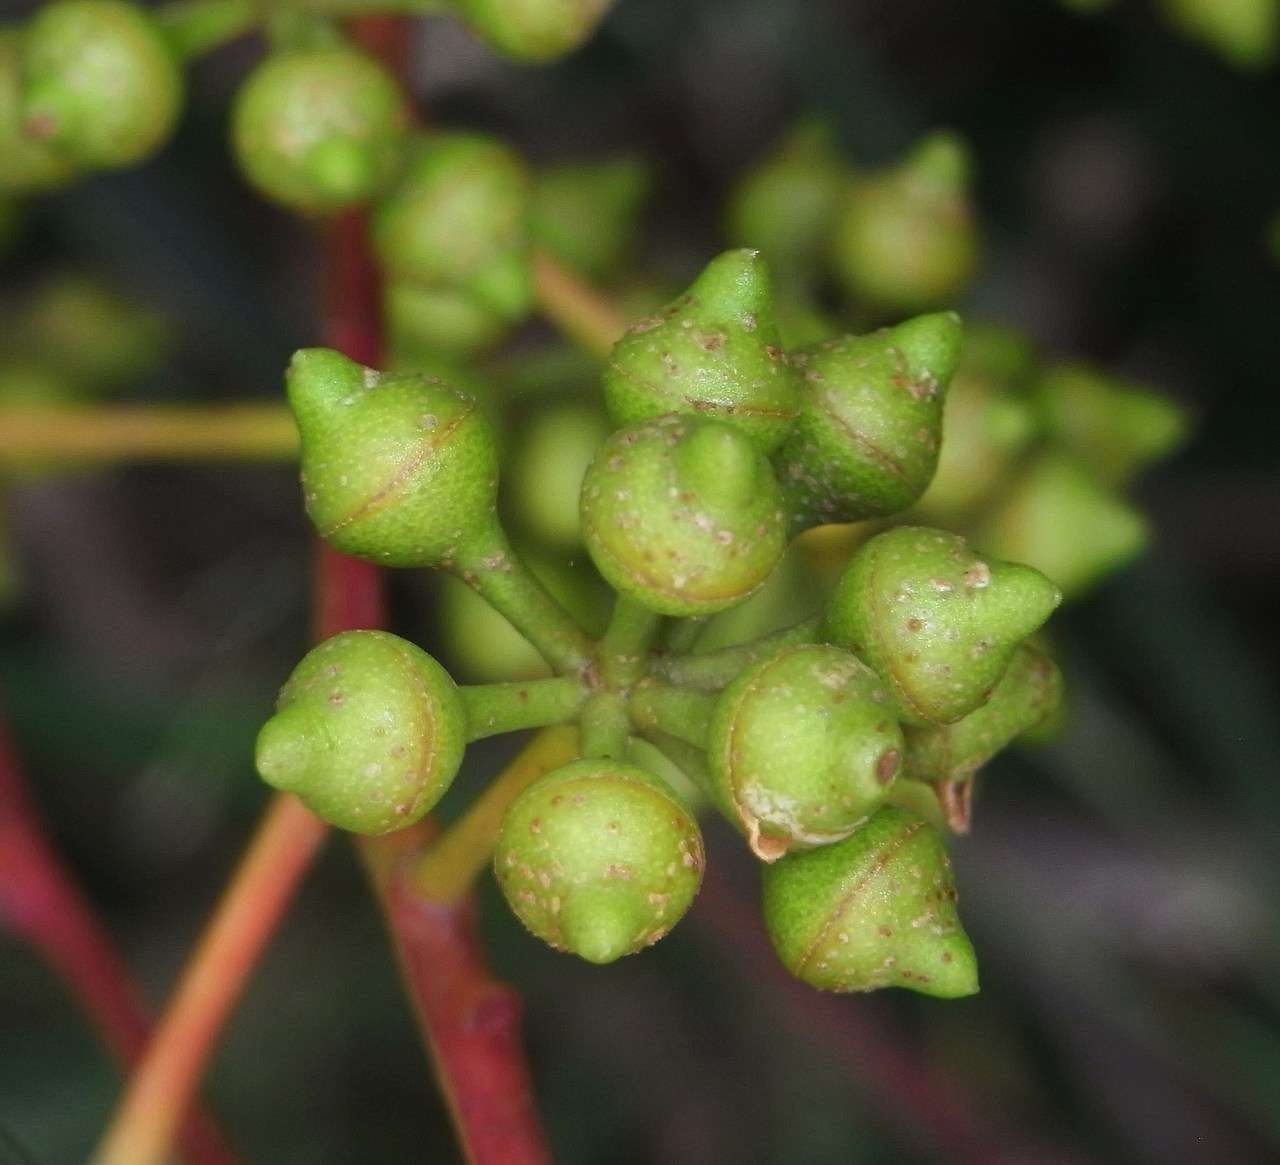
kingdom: Plantae
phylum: Tracheophyta
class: Magnoliopsida
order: Myrtales
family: Myrtaceae
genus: Eucalyptus
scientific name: Eucalyptus camaldulensis
